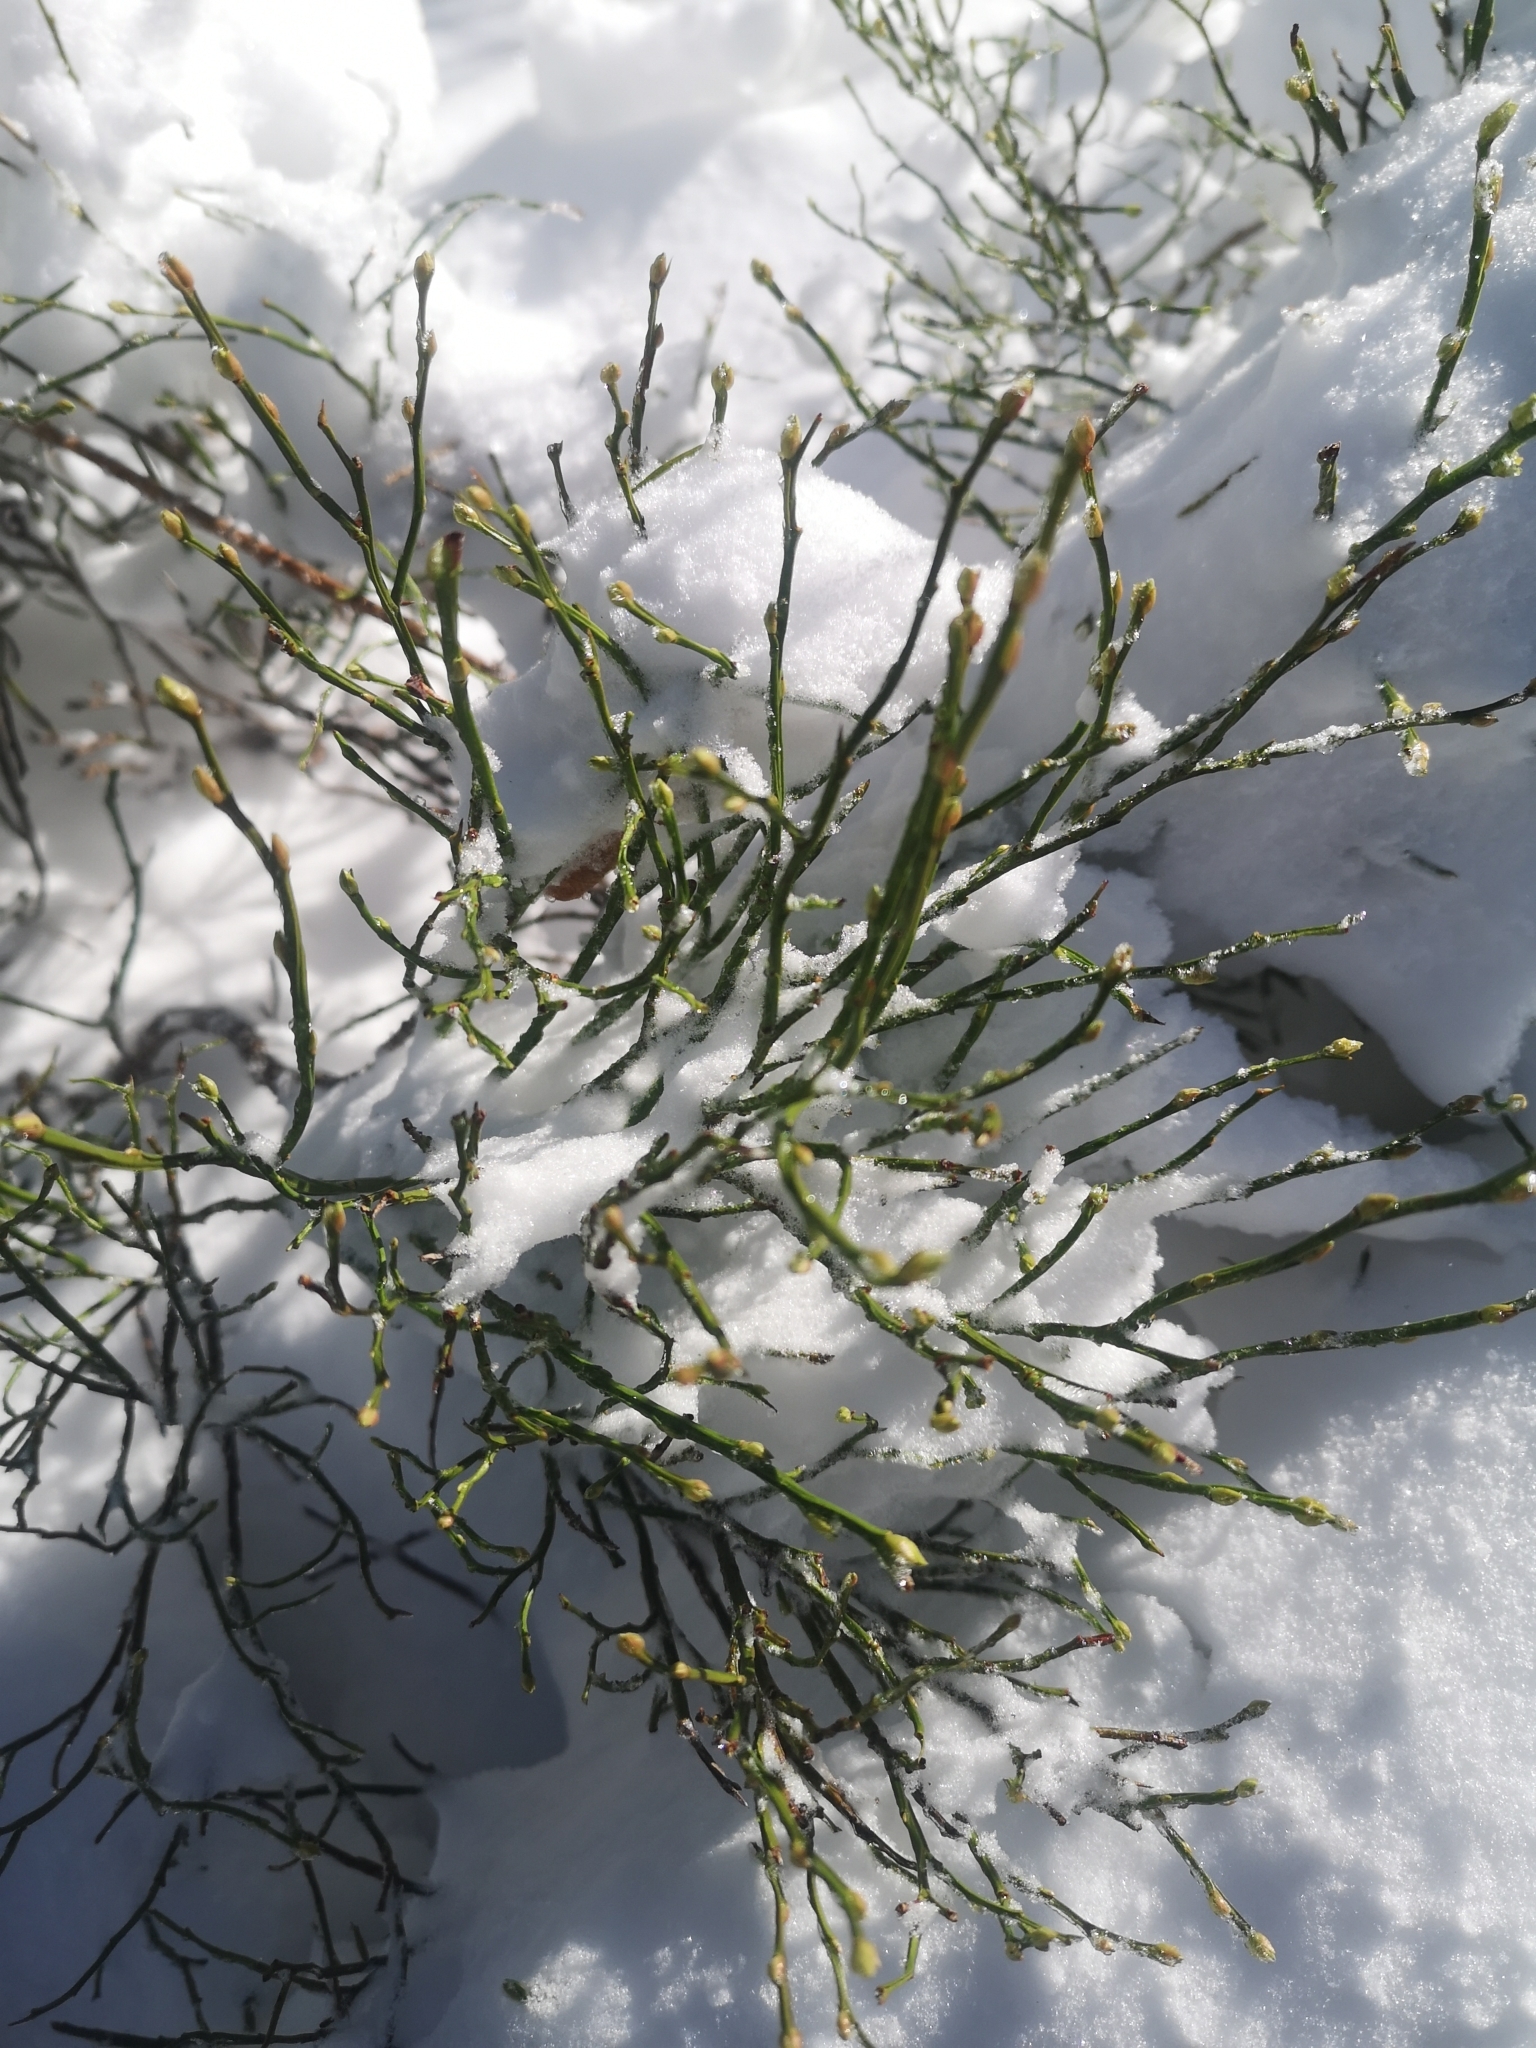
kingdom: Plantae
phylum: Tracheophyta
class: Magnoliopsida
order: Ericales
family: Ericaceae
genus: Vaccinium
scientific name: Vaccinium myrtillus
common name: Bilberry
